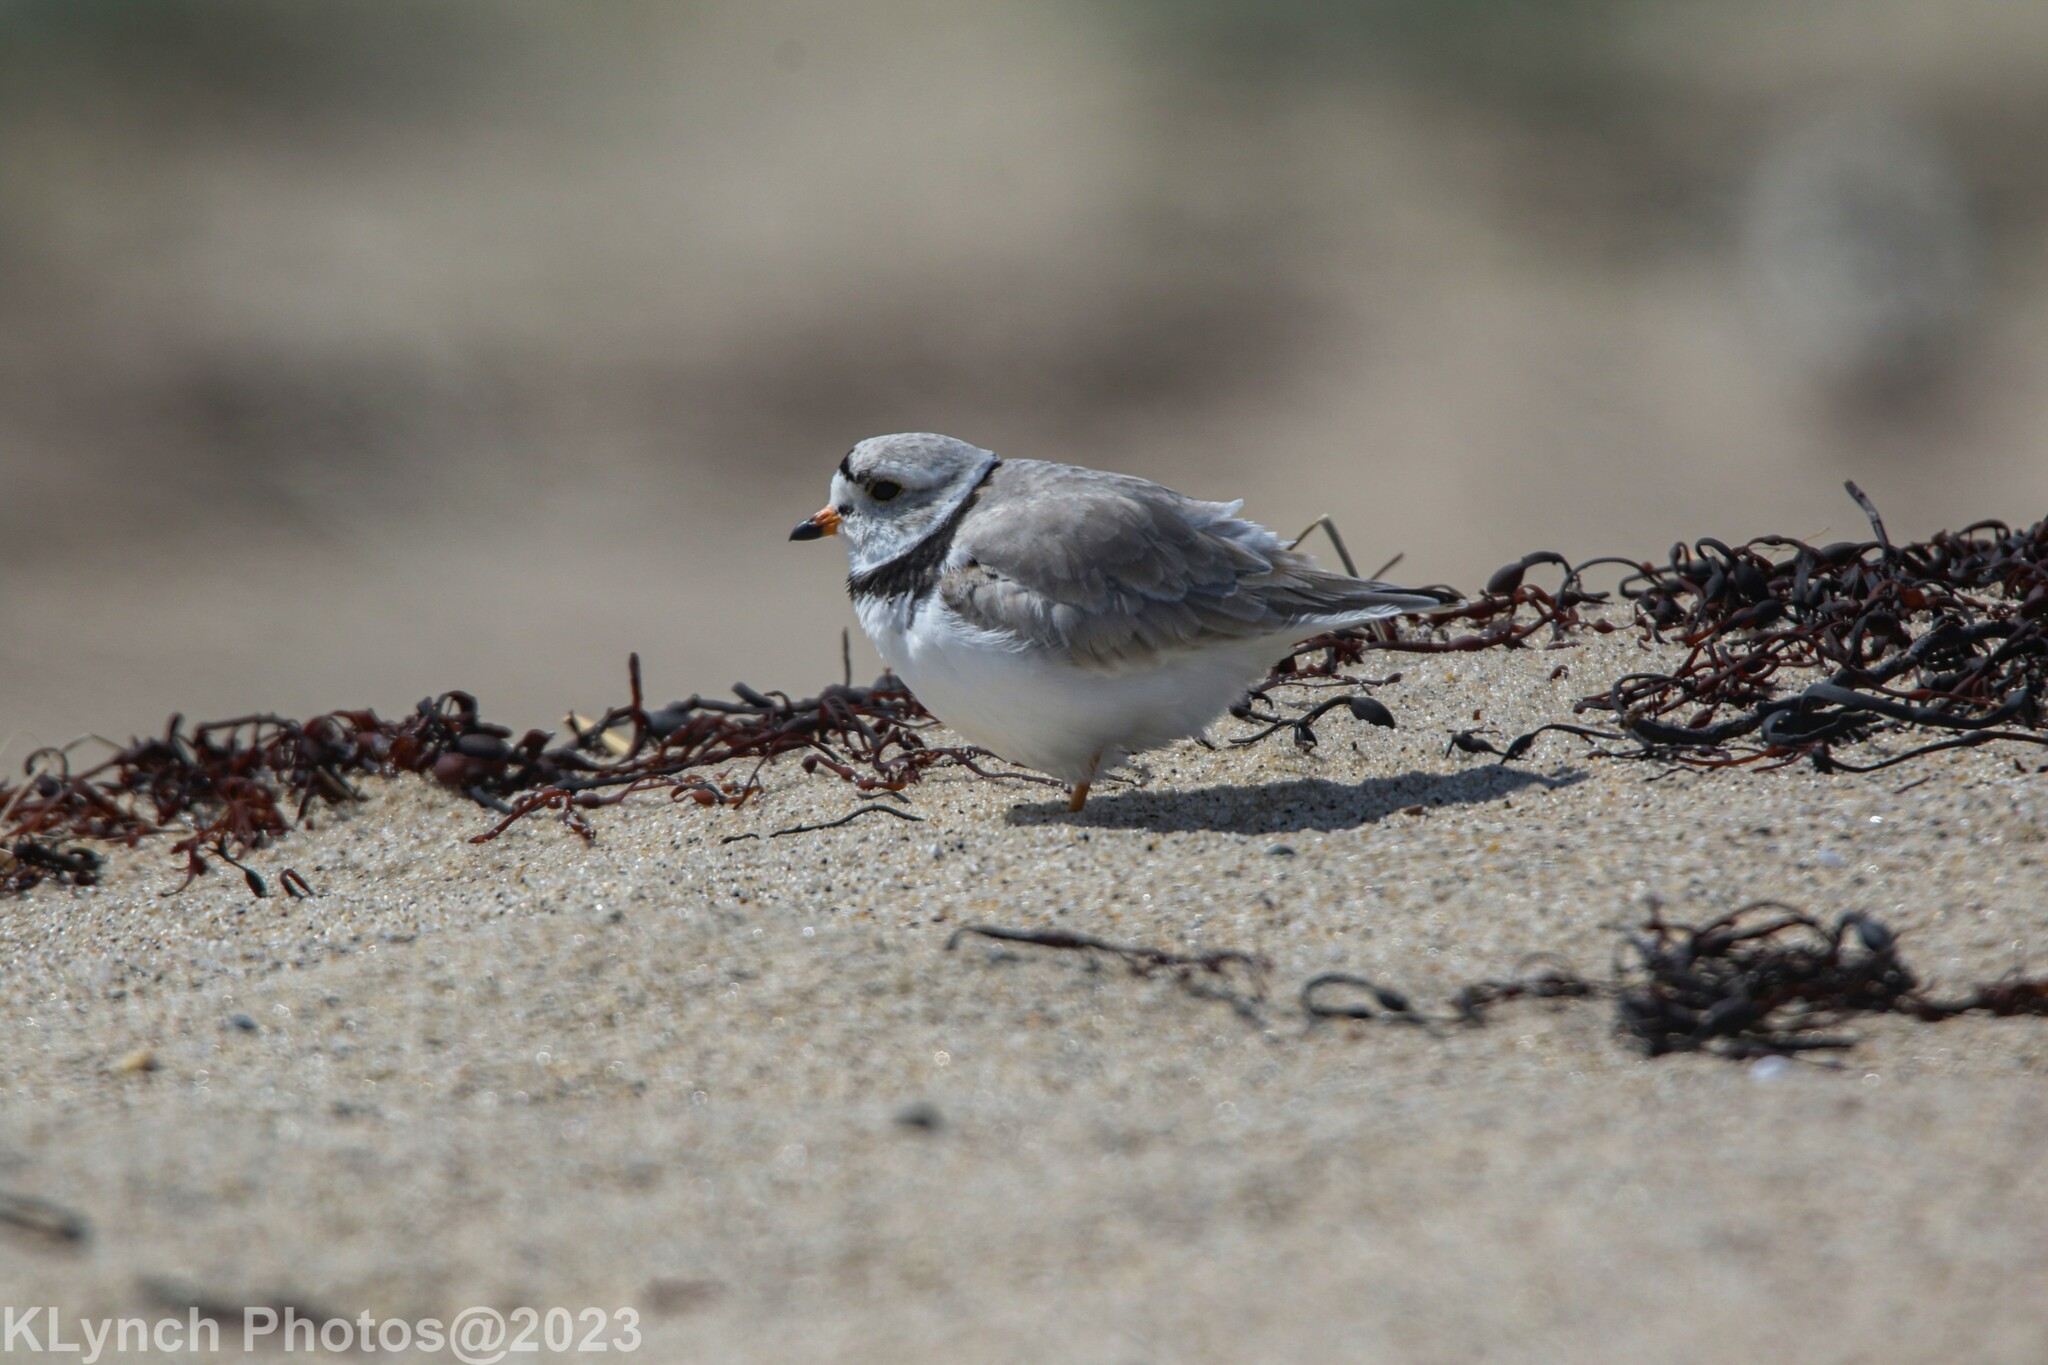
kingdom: Animalia
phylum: Chordata
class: Aves
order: Charadriiformes
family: Charadriidae
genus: Charadrius
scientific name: Charadrius melodus
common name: Piping plover
